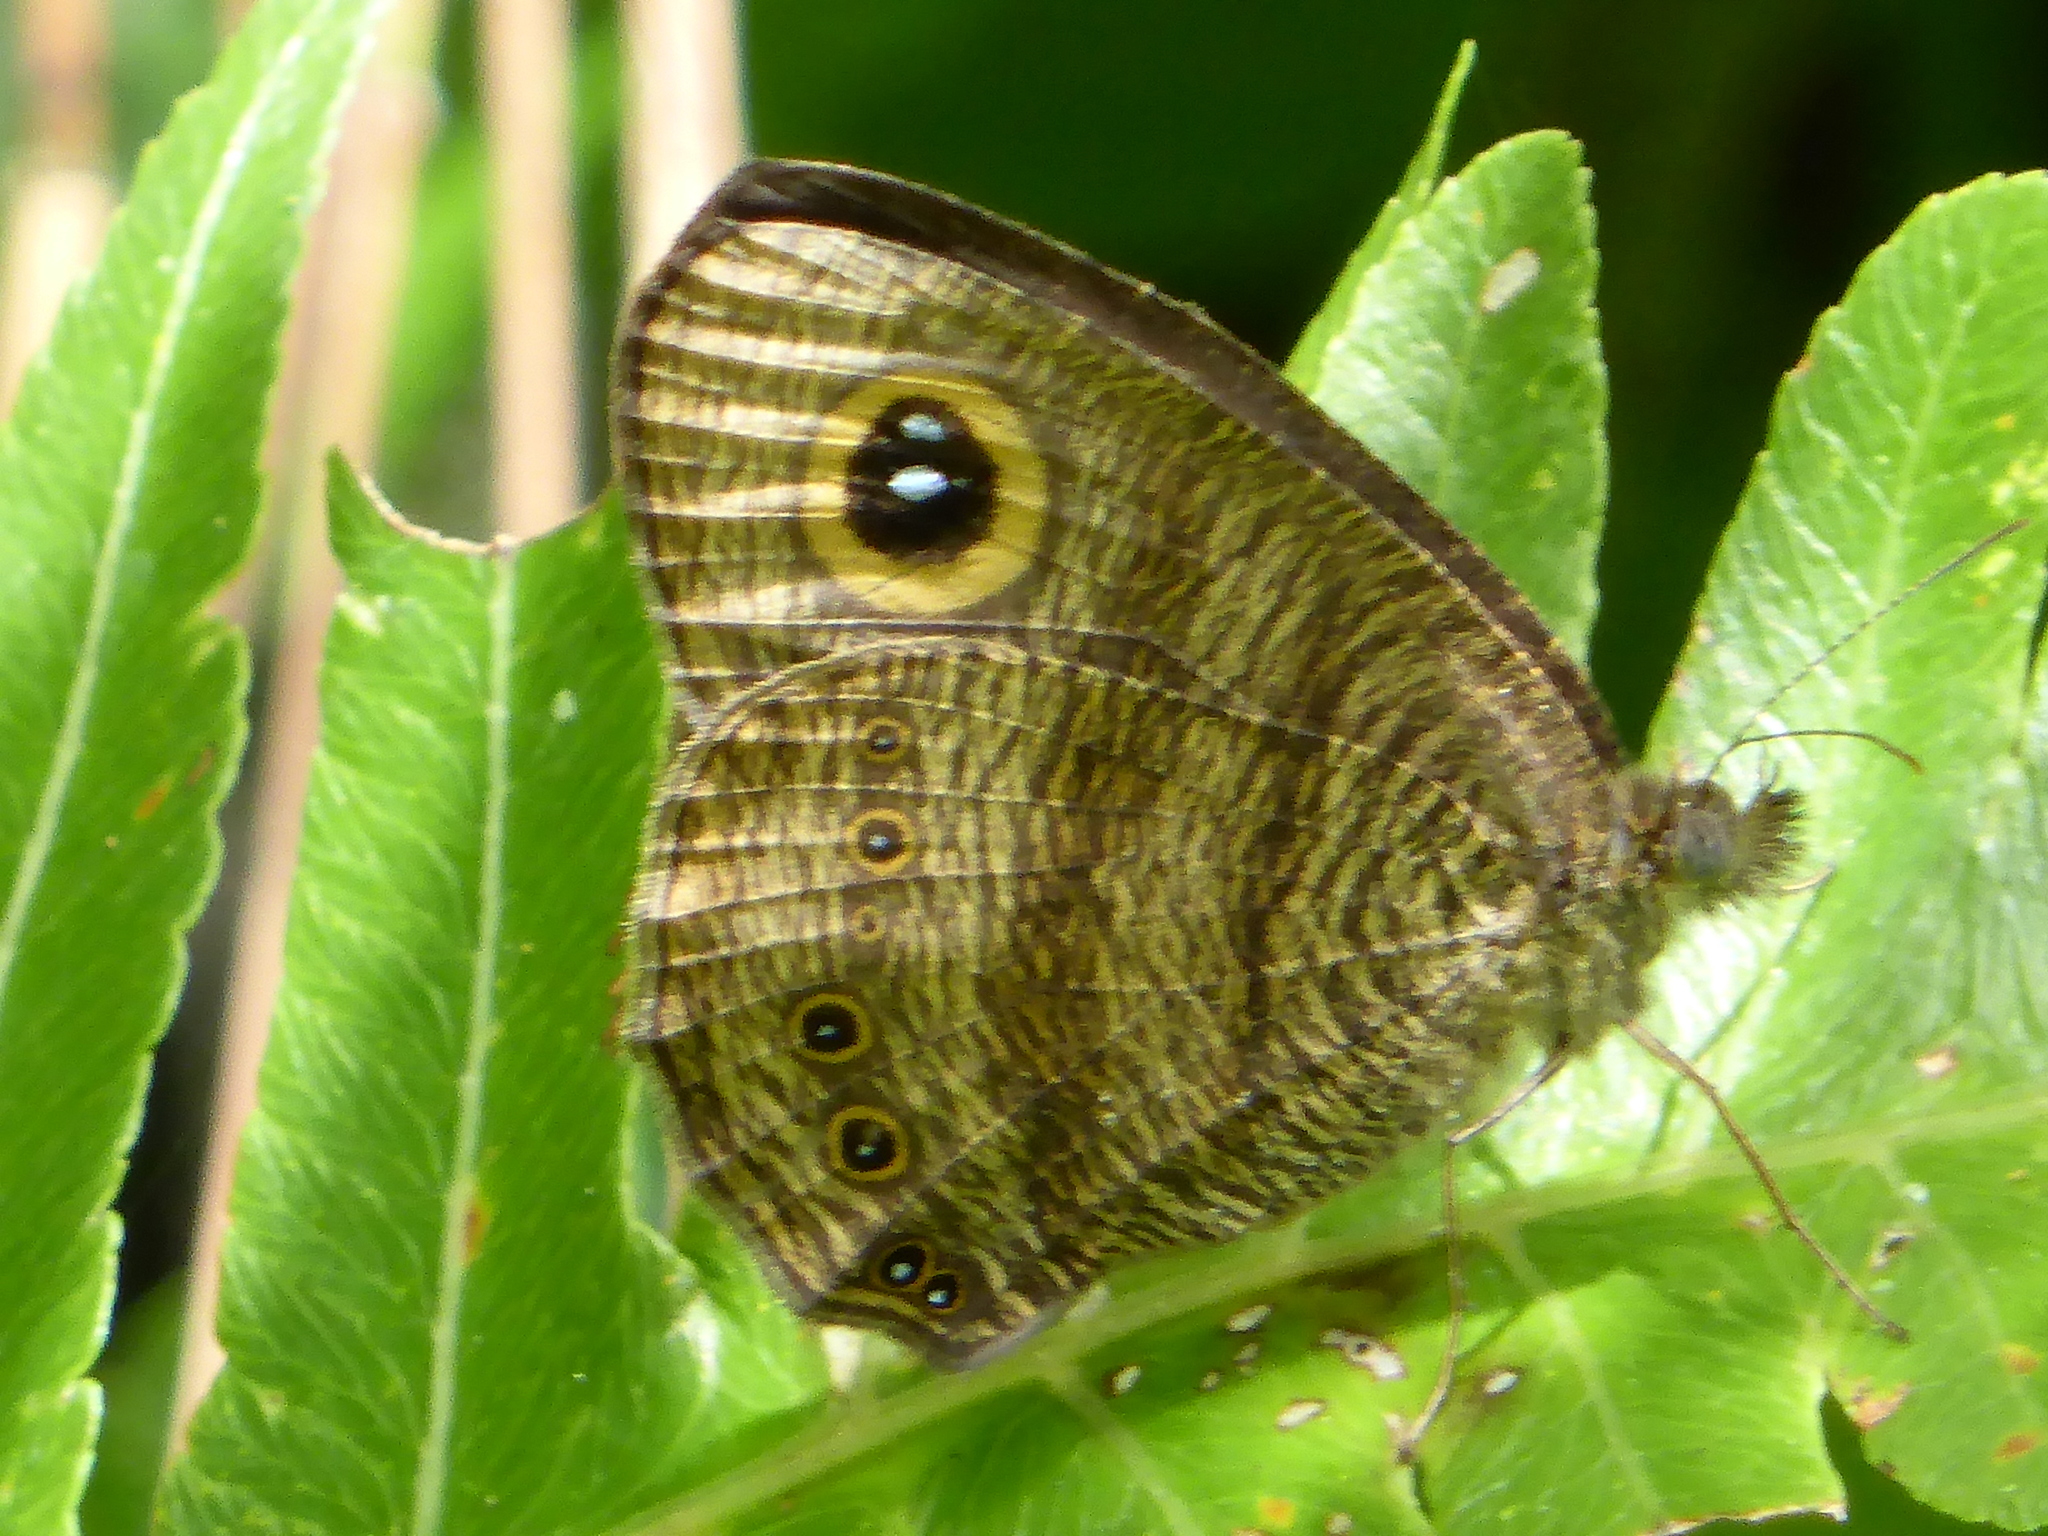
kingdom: Animalia
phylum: Arthropoda
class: Insecta
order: Lepidoptera
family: Nymphalidae
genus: Ypthima
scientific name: Ypthima fasciata
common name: Malayan six-ring
